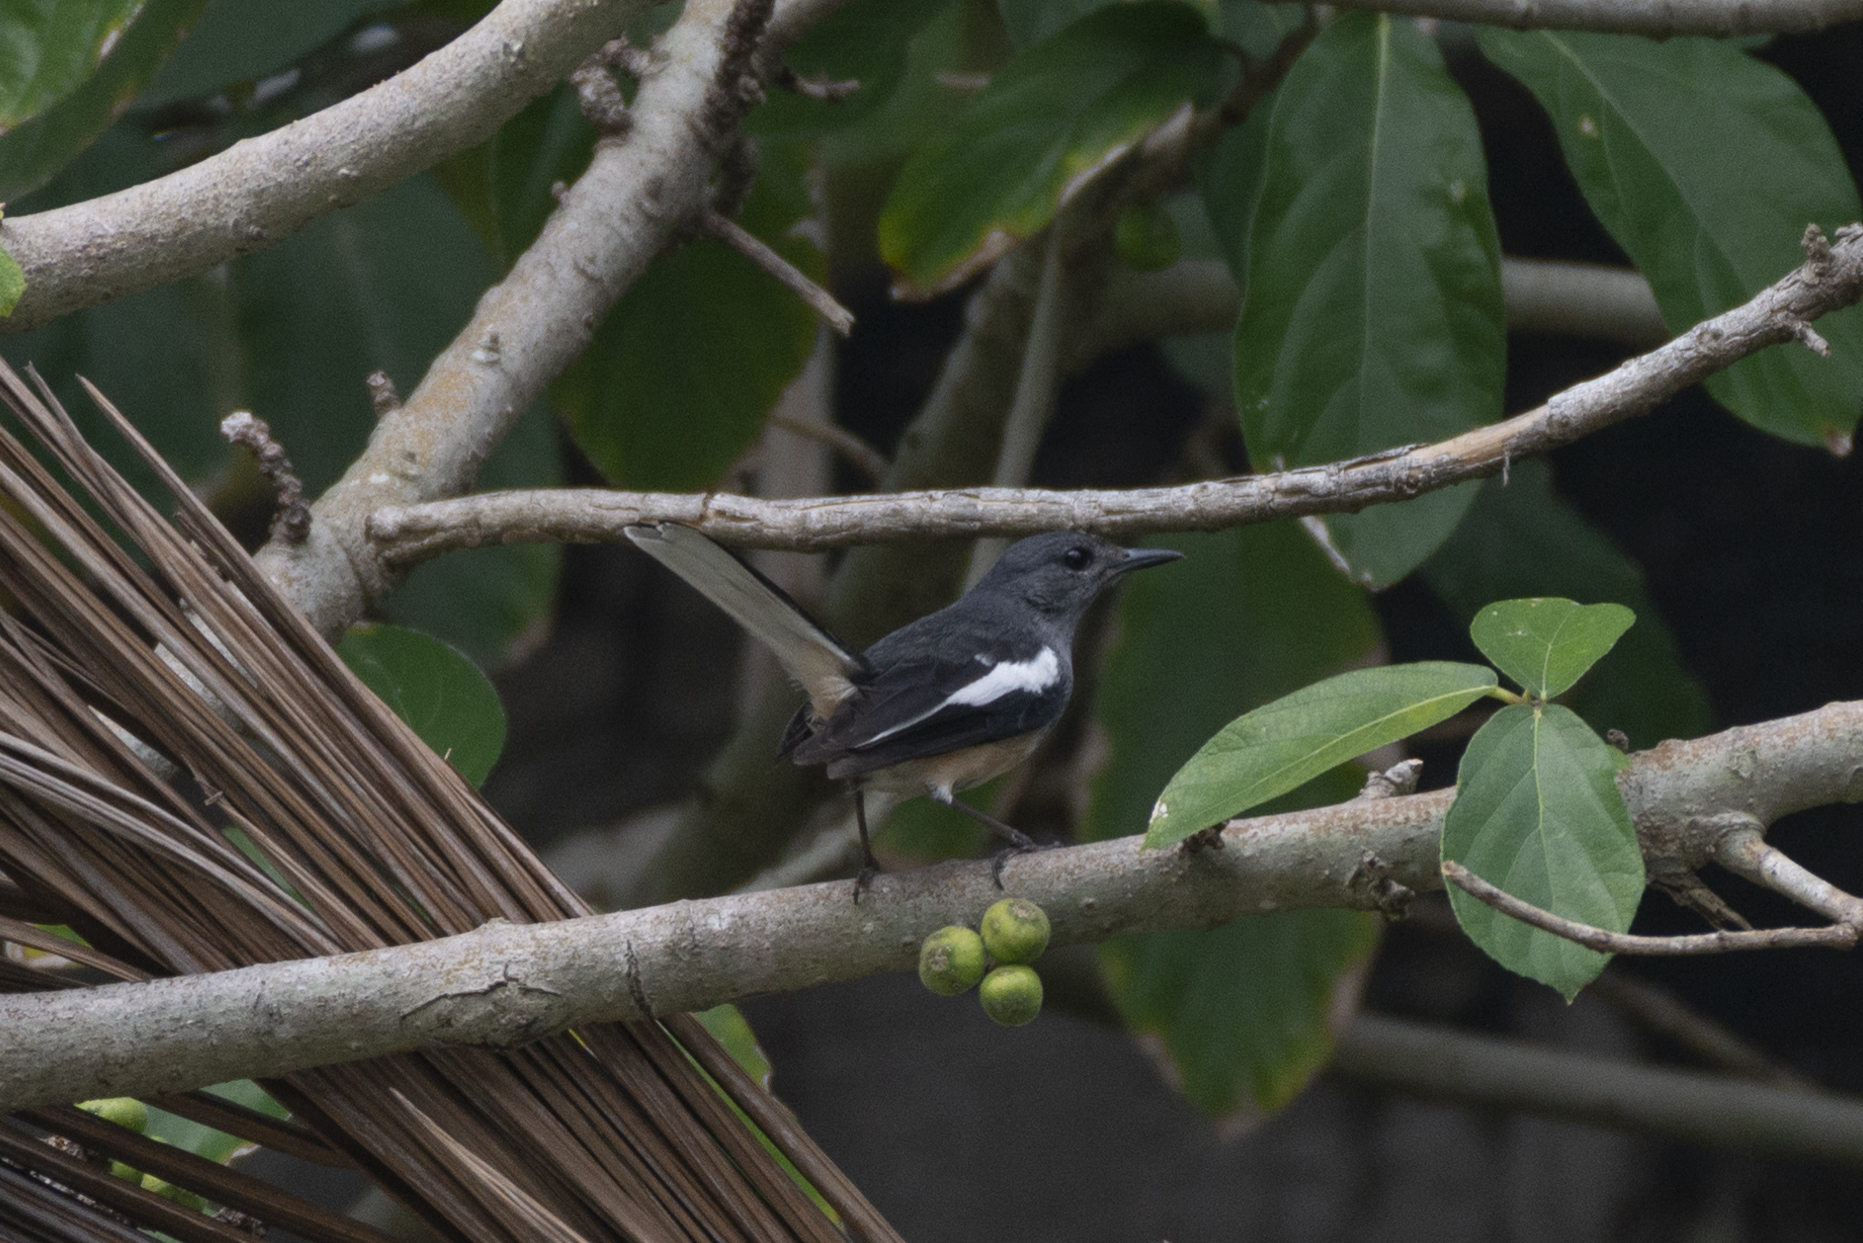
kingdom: Animalia
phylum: Chordata
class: Aves
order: Passeriformes
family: Muscicapidae
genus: Copsychus
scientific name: Copsychus saularis
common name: Oriental magpie-robin
